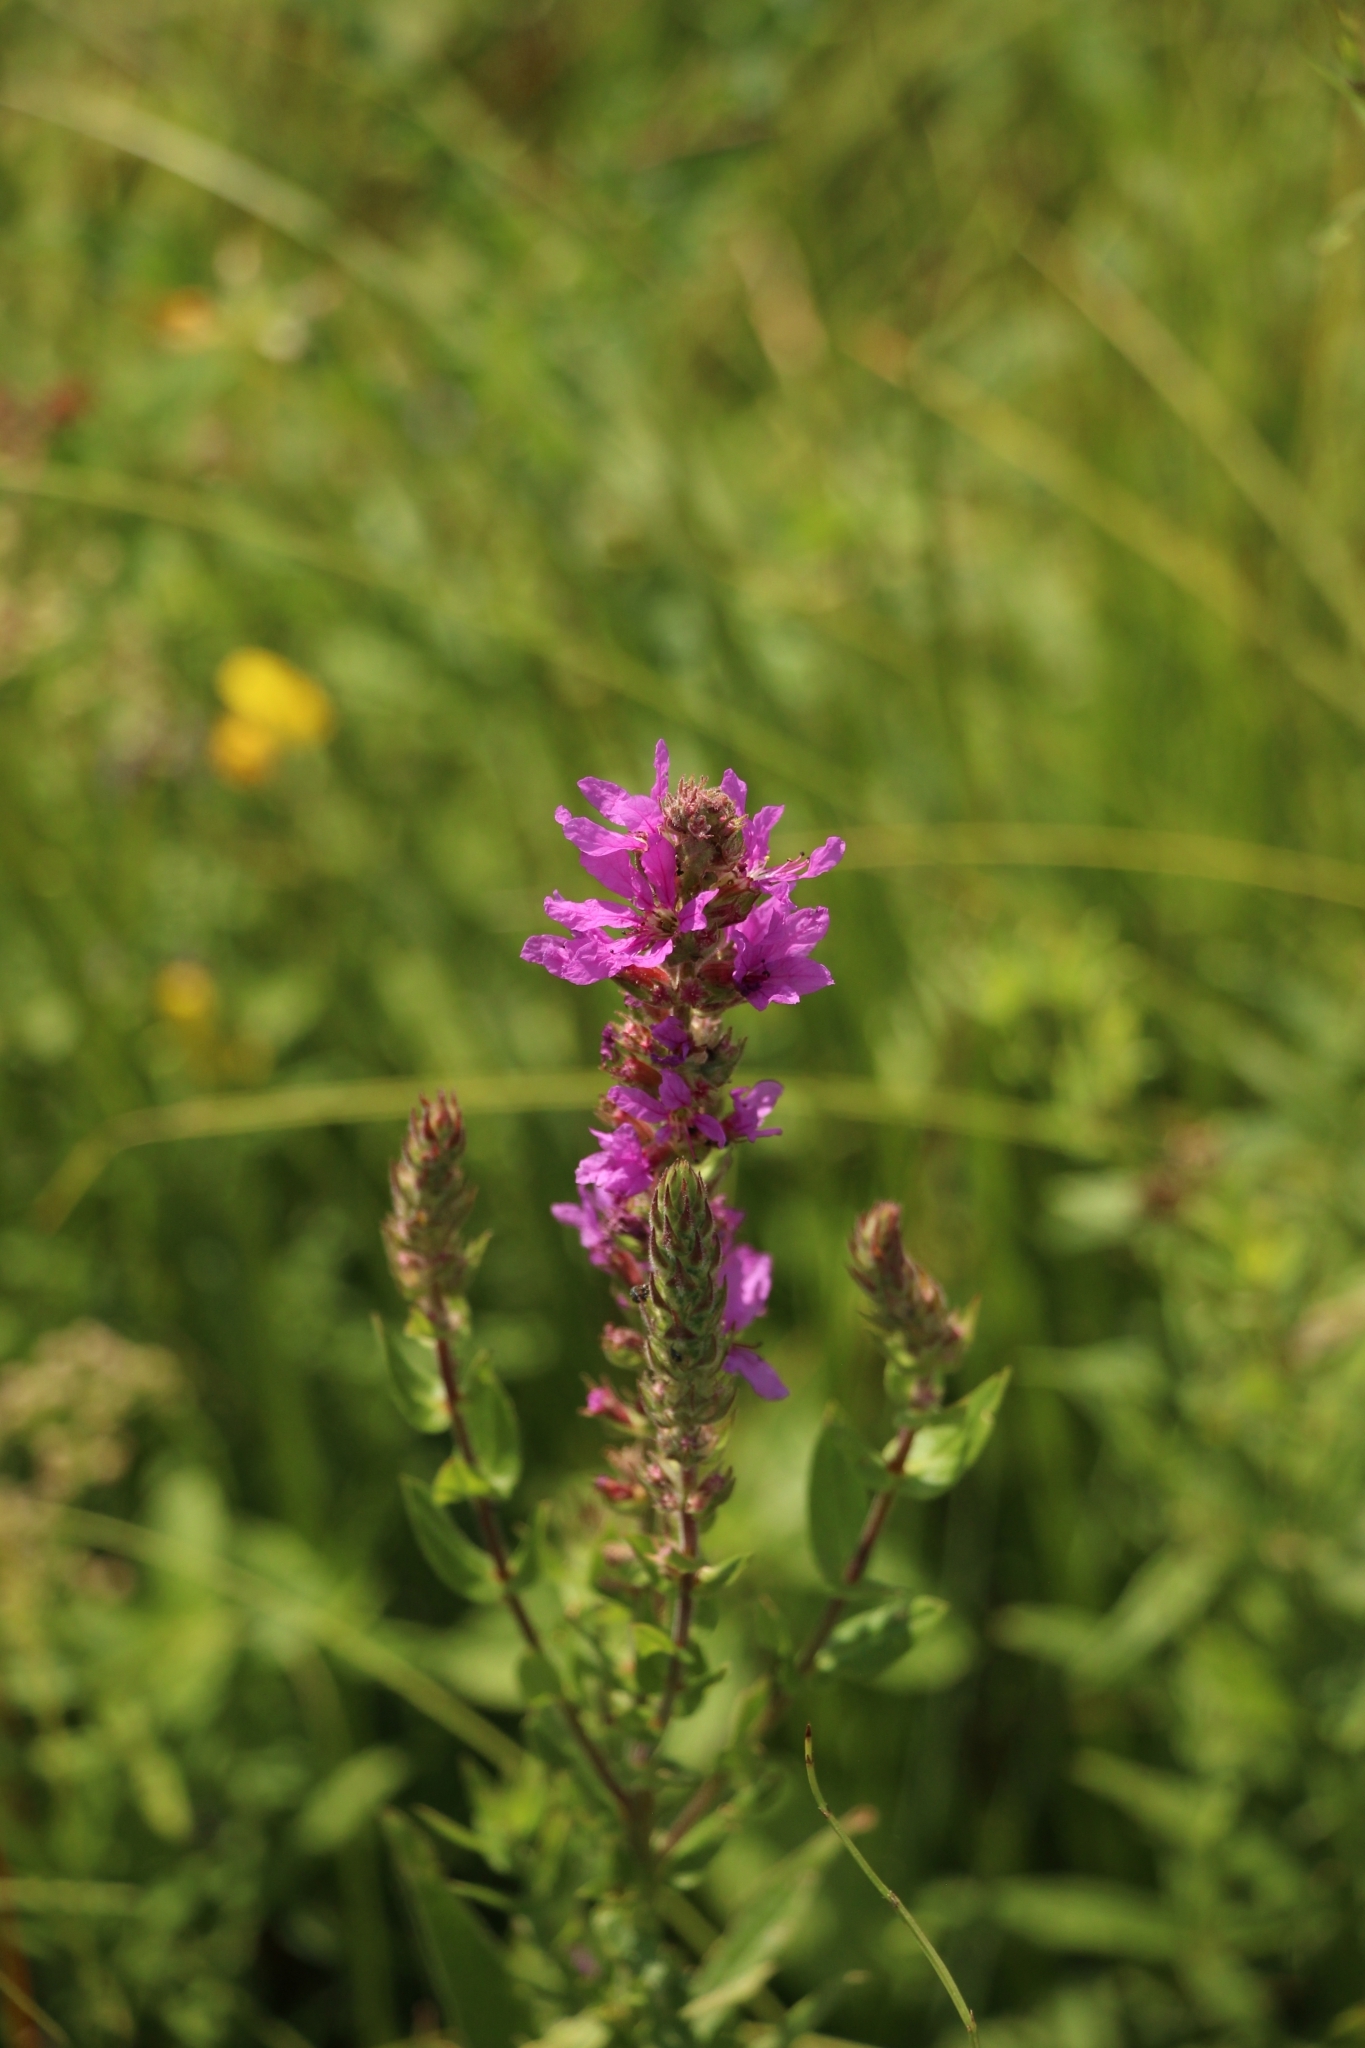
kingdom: Plantae
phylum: Tracheophyta
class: Magnoliopsida
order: Myrtales
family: Lythraceae
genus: Lythrum
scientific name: Lythrum salicaria
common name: Purple loosestrife
